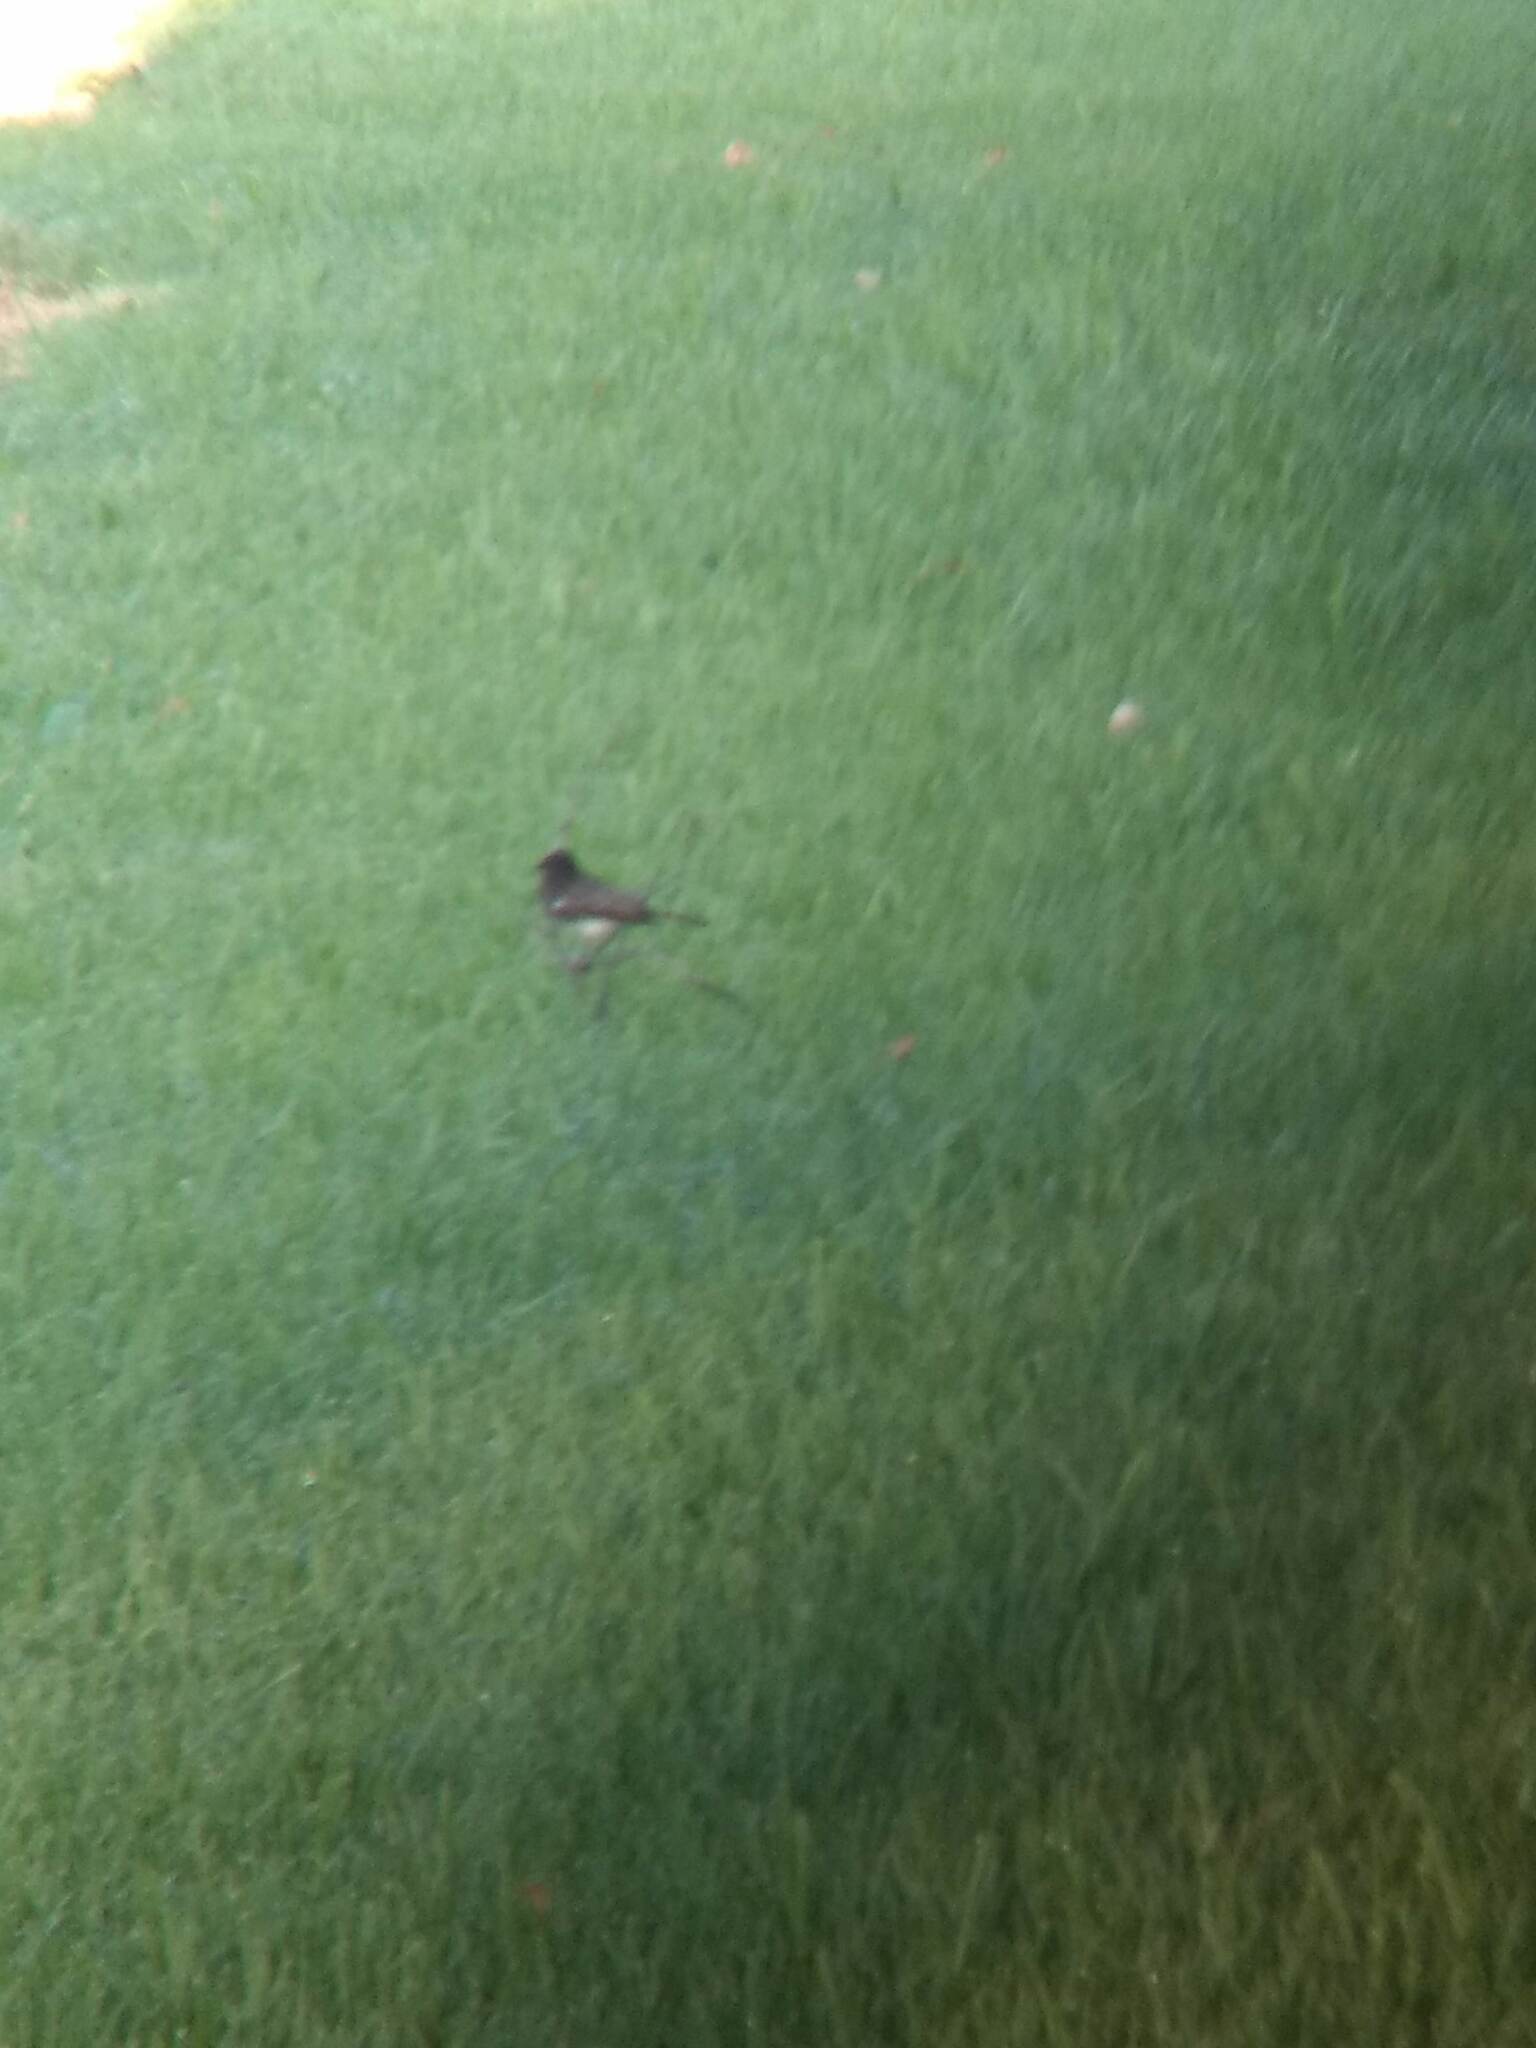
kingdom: Animalia
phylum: Chordata
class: Aves
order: Passeriformes
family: Tyrannidae
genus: Sayornis
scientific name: Sayornis nigricans
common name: Black phoebe
